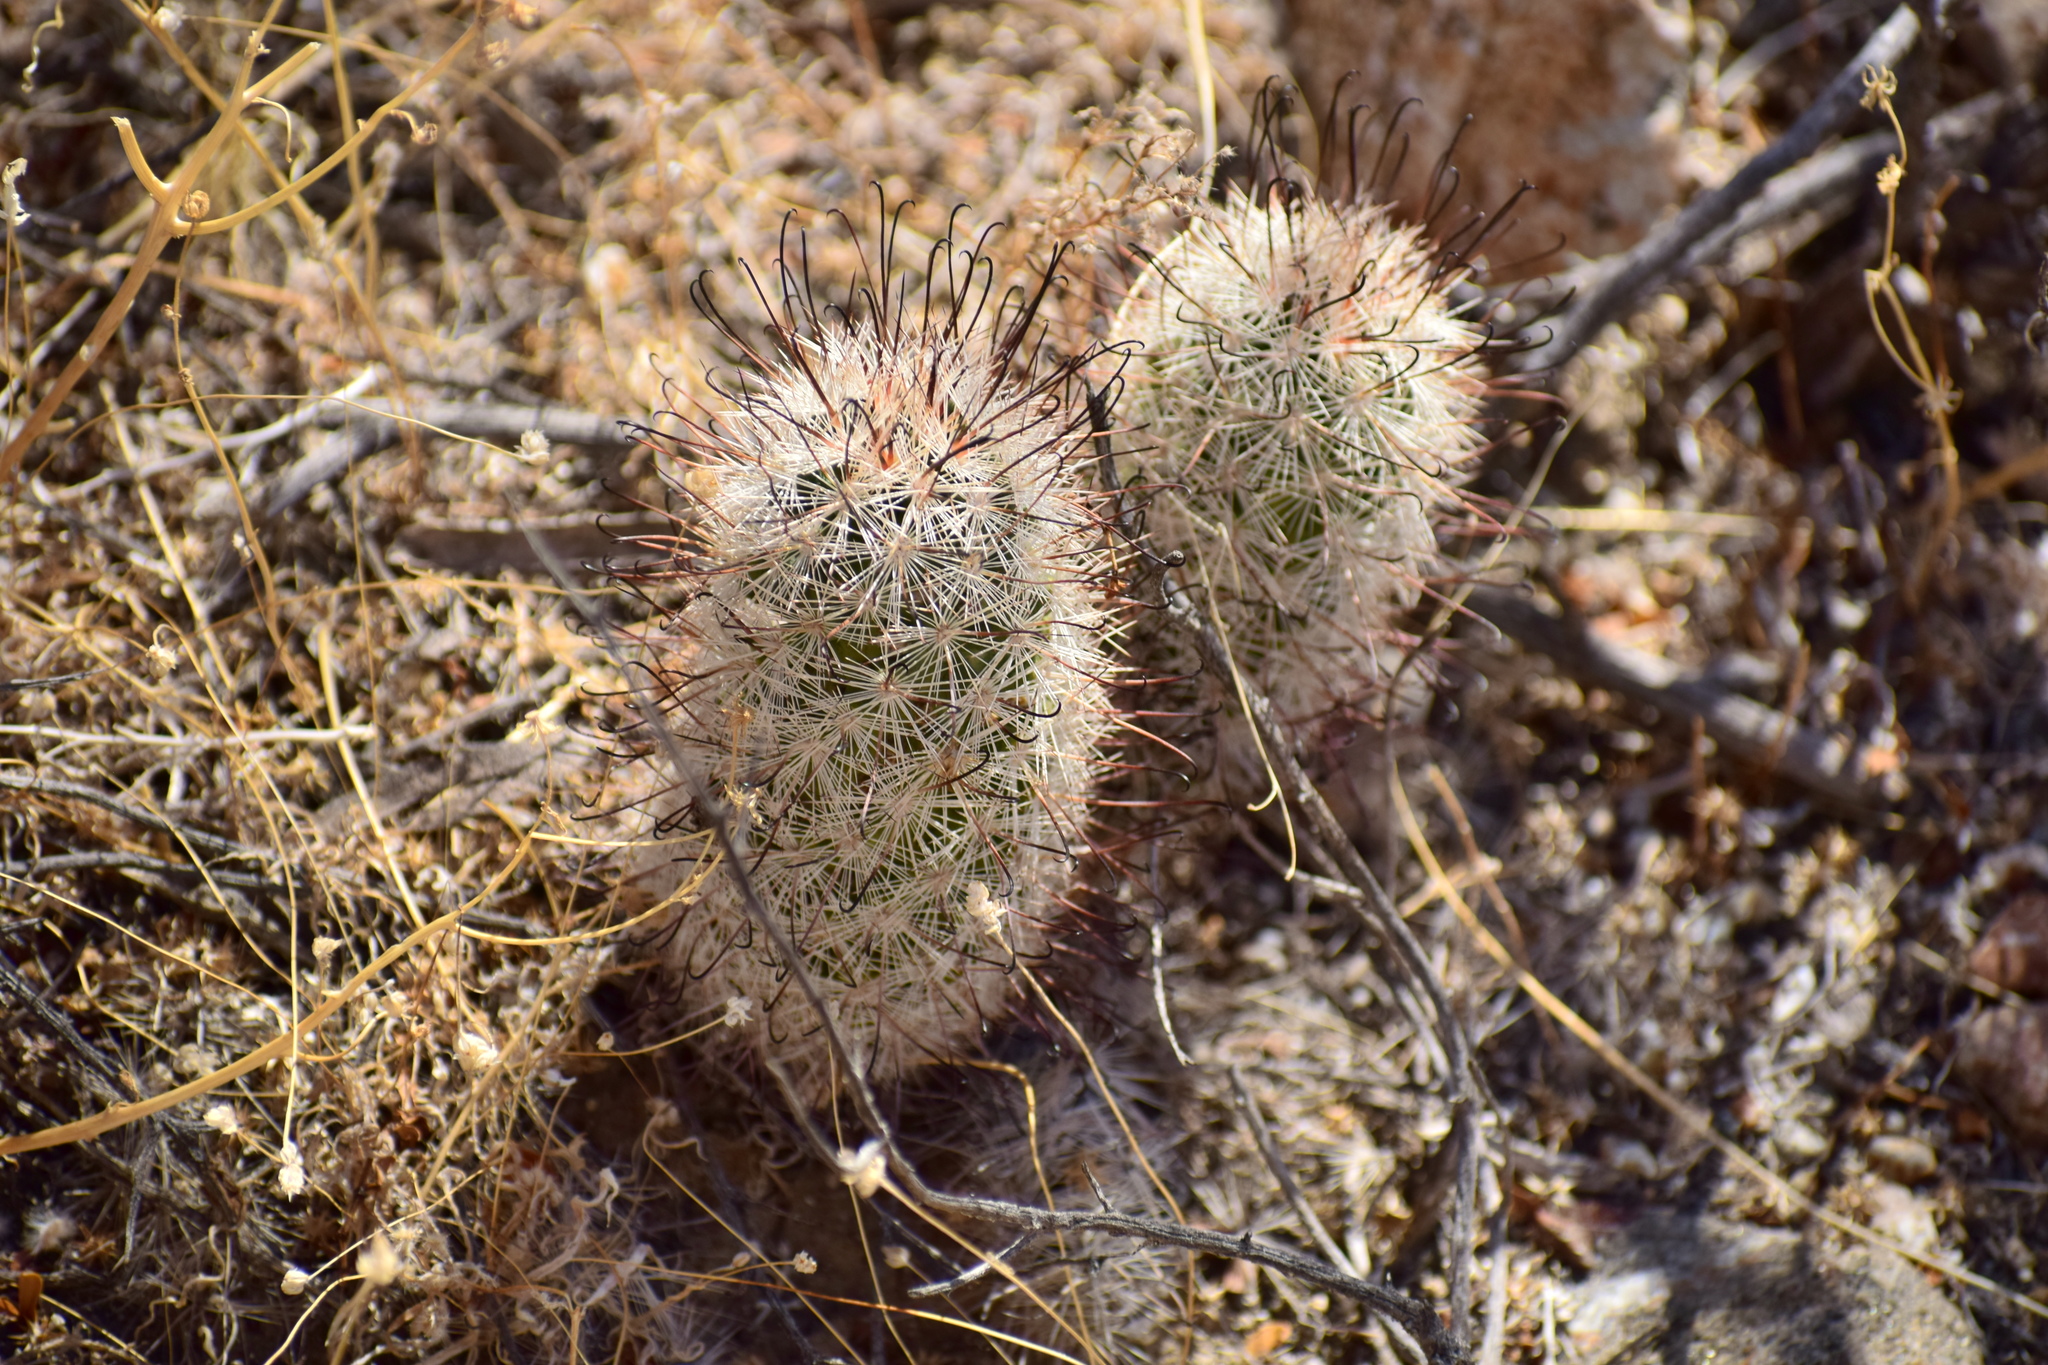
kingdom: Plantae
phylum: Tracheophyta
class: Magnoliopsida
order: Caryophyllales
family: Cactaceae
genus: Cochemiea
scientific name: Cochemiea tetrancistra
